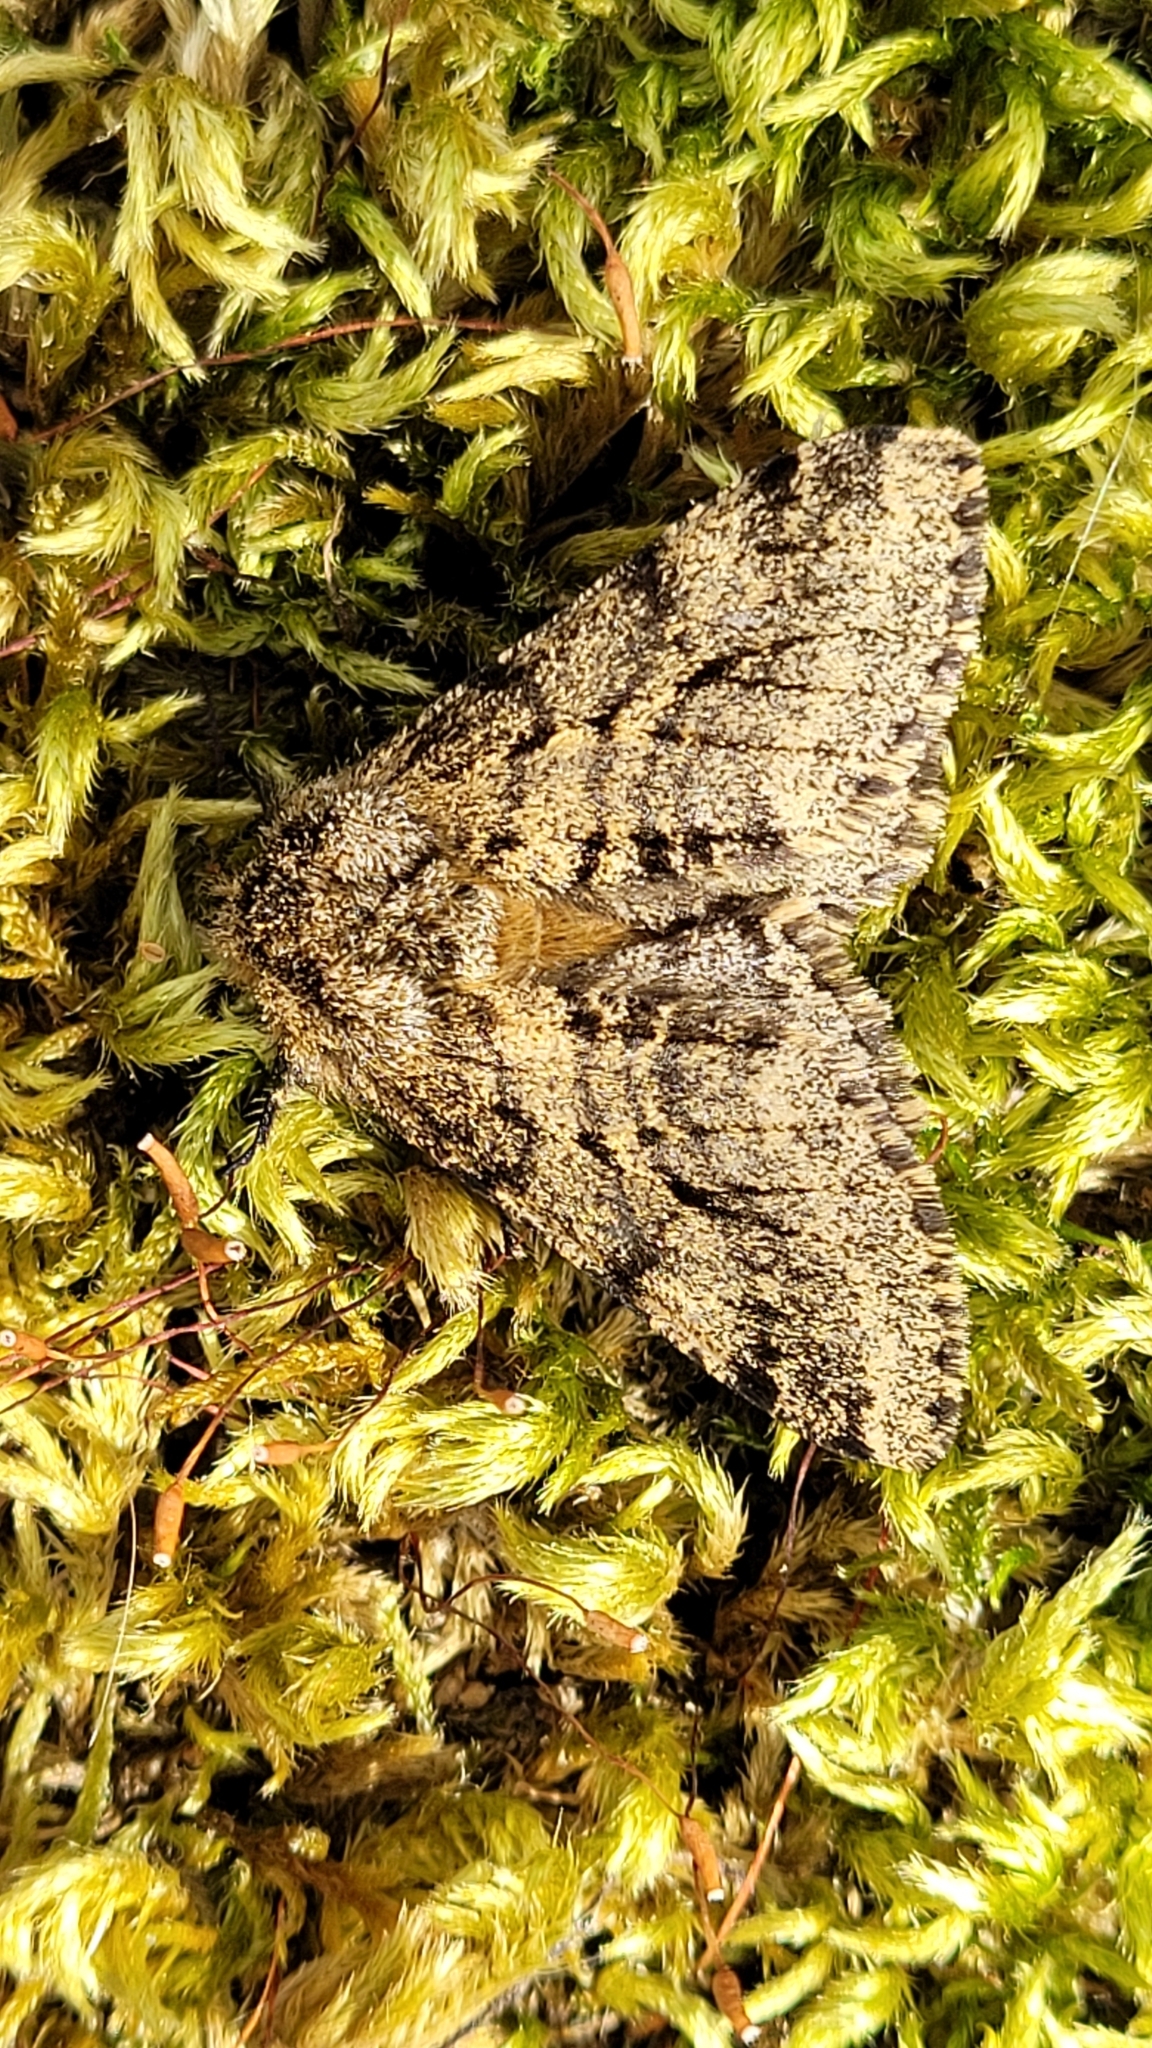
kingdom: Animalia
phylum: Arthropoda
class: Insecta
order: Lepidoptera
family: Geometridae
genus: Lycia
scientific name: Lycia hirtaria
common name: Brindled beauty
